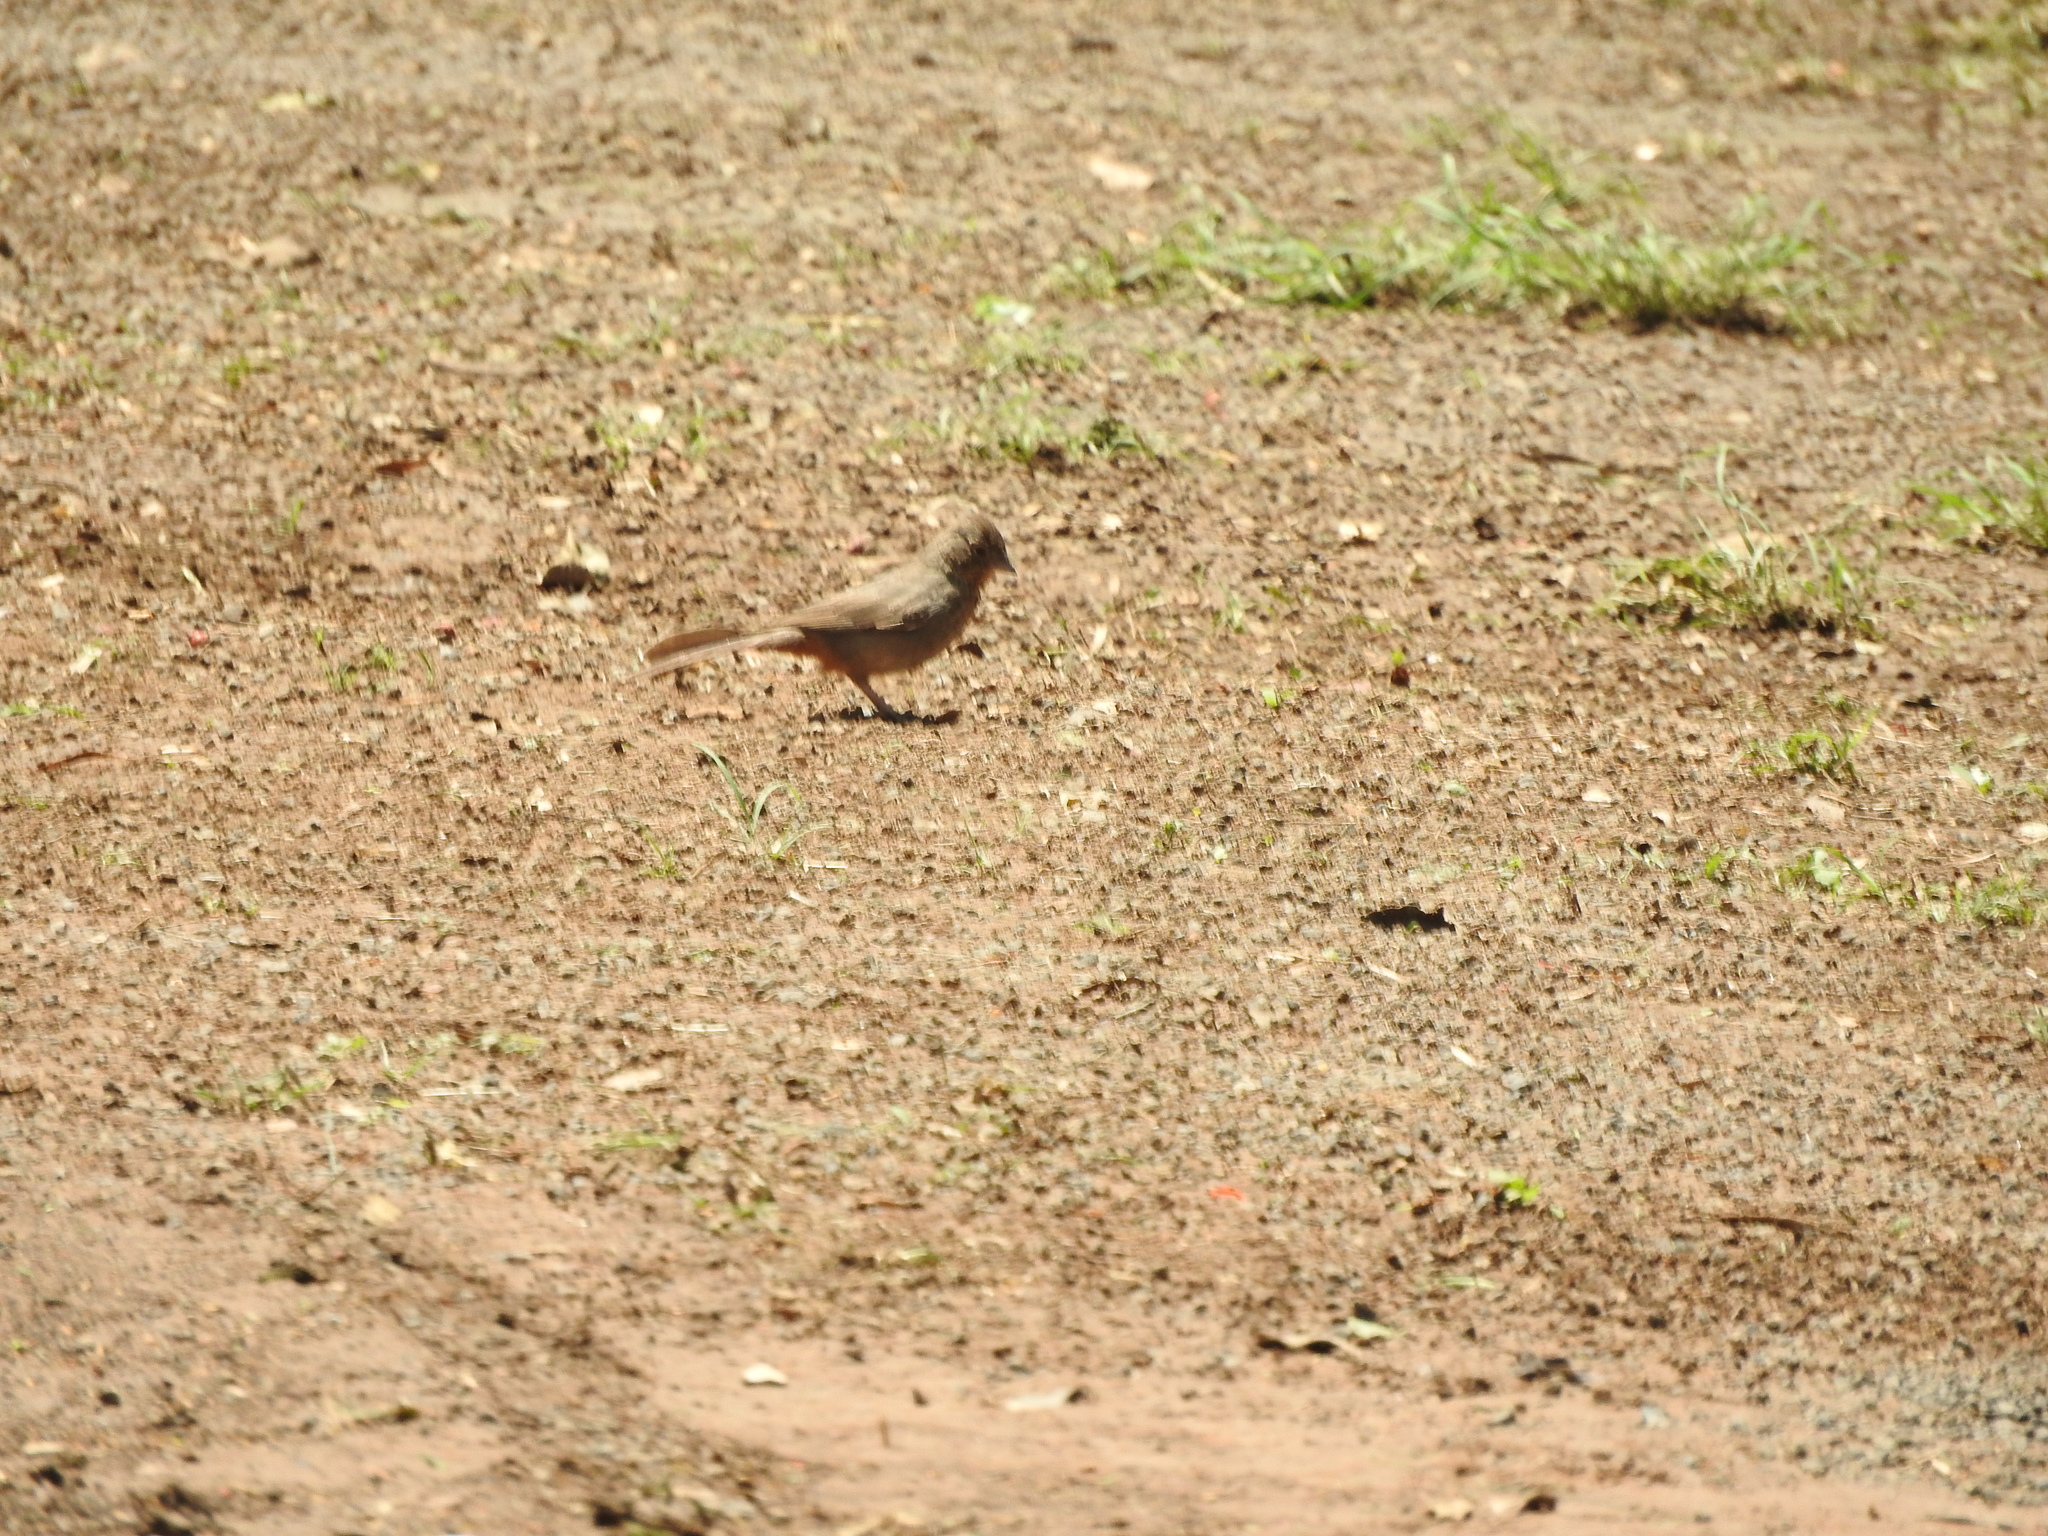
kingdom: Animalia
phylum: Chordata
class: Aves
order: Passeriformes
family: Passerellidae
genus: Melozone
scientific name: Melozone fusca
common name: Canyon towhee
